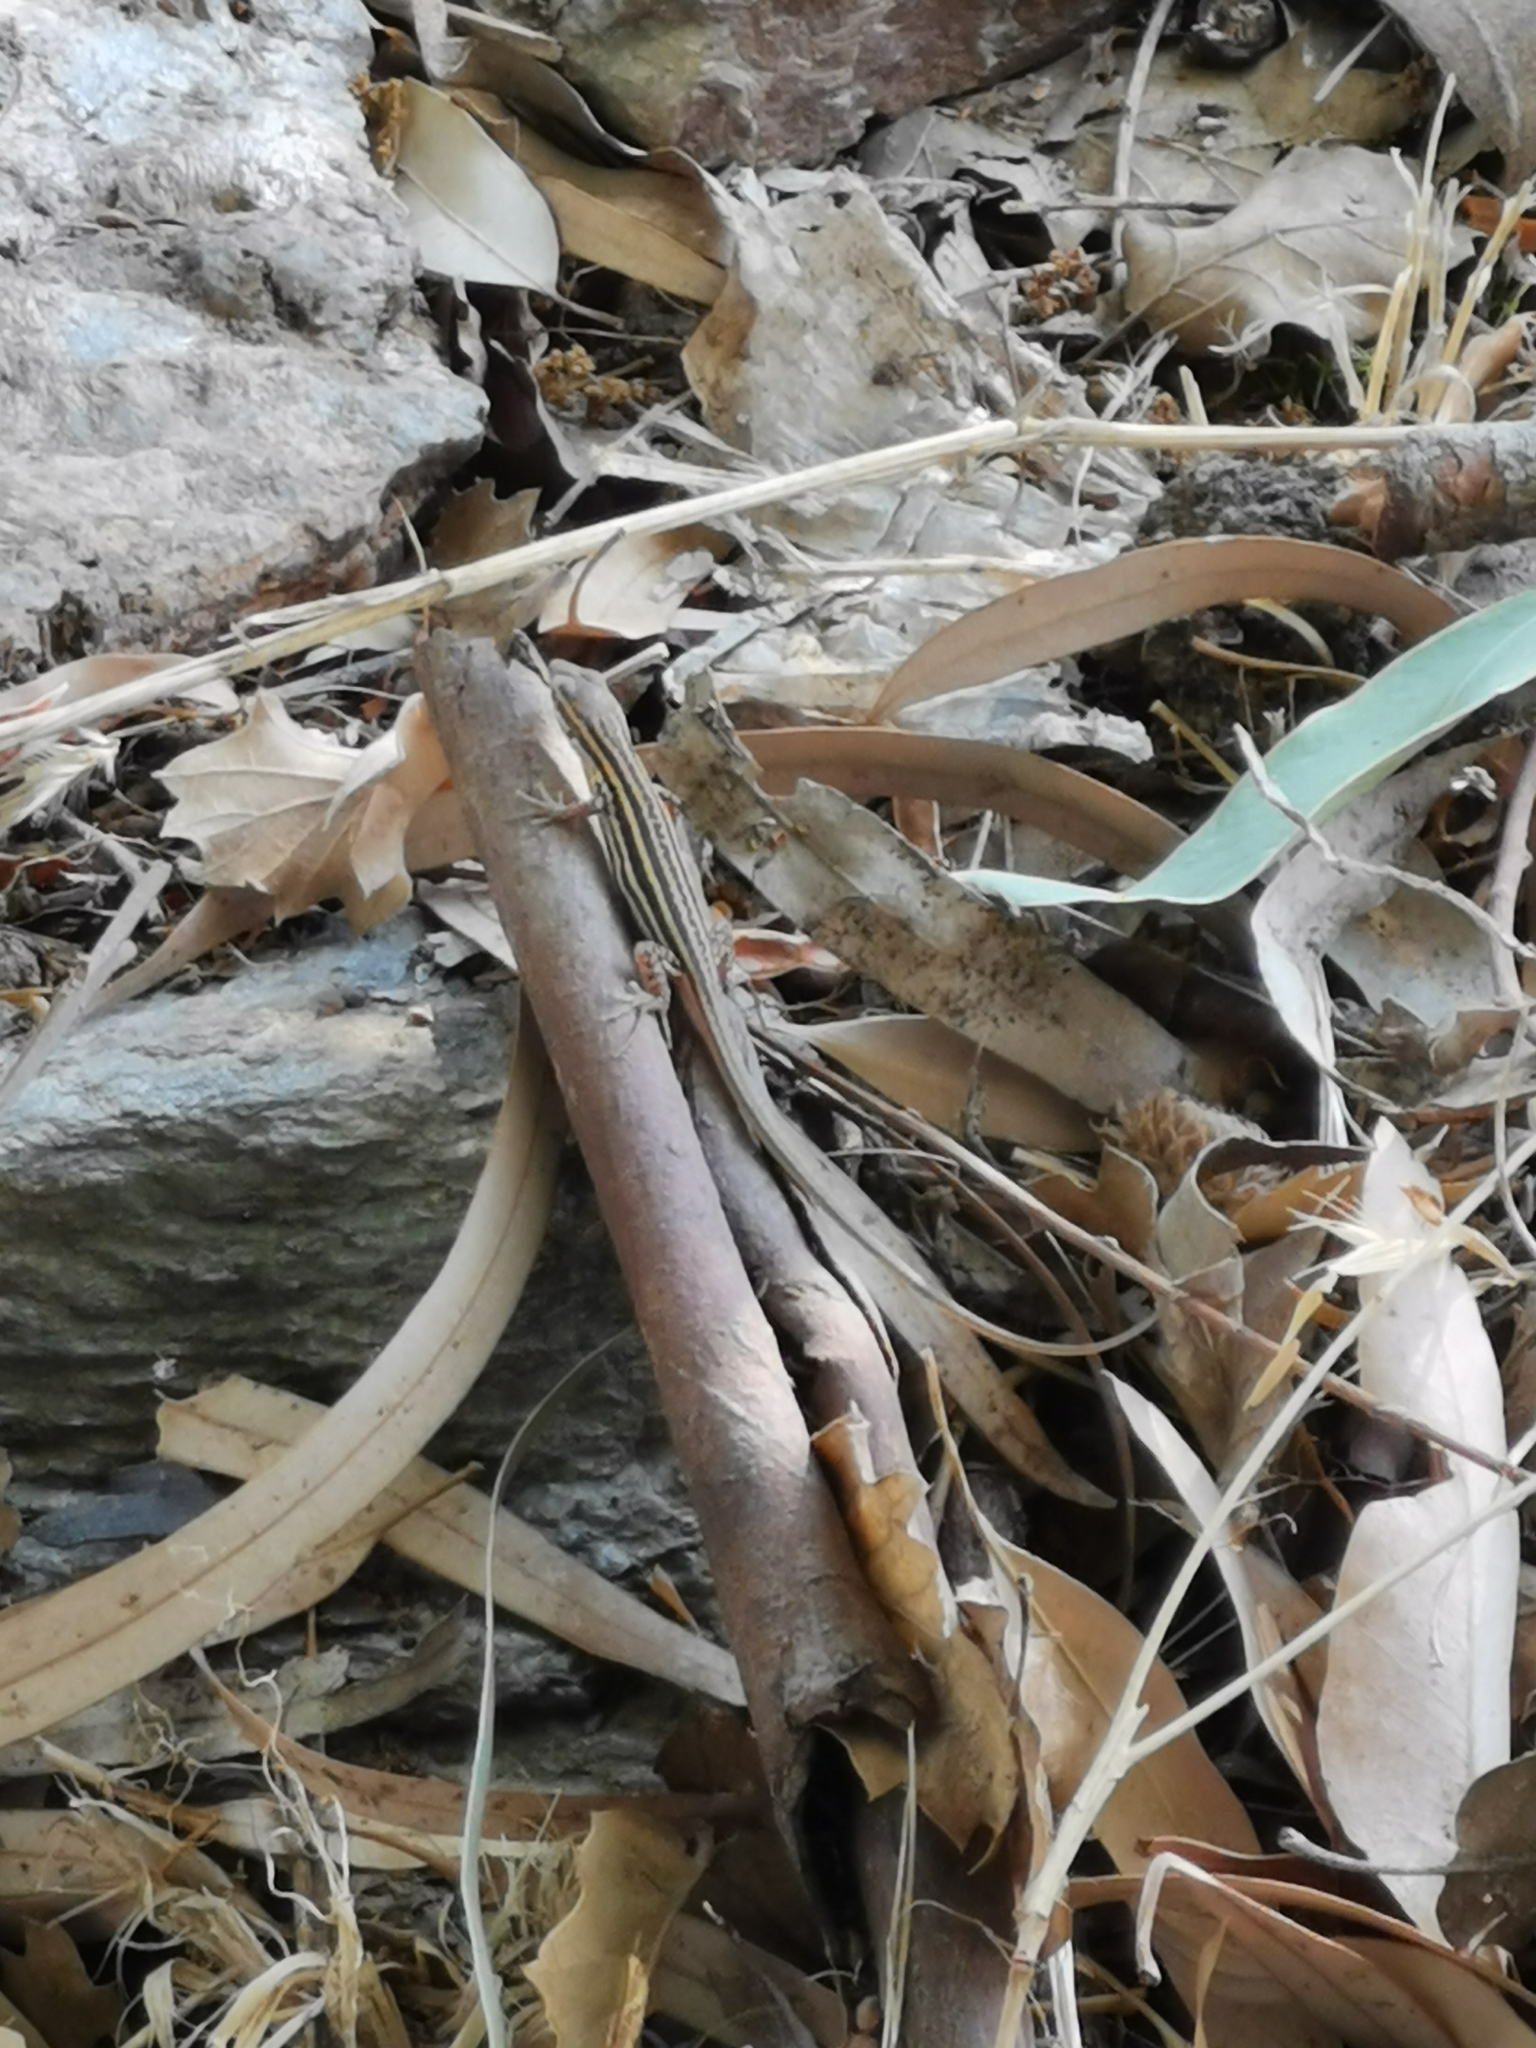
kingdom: Animalia
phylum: Chordata
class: Squamata
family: Lacertidae
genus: Podarcis
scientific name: Podarcis peloponnesiacus
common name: Peloponnese wall lizard
